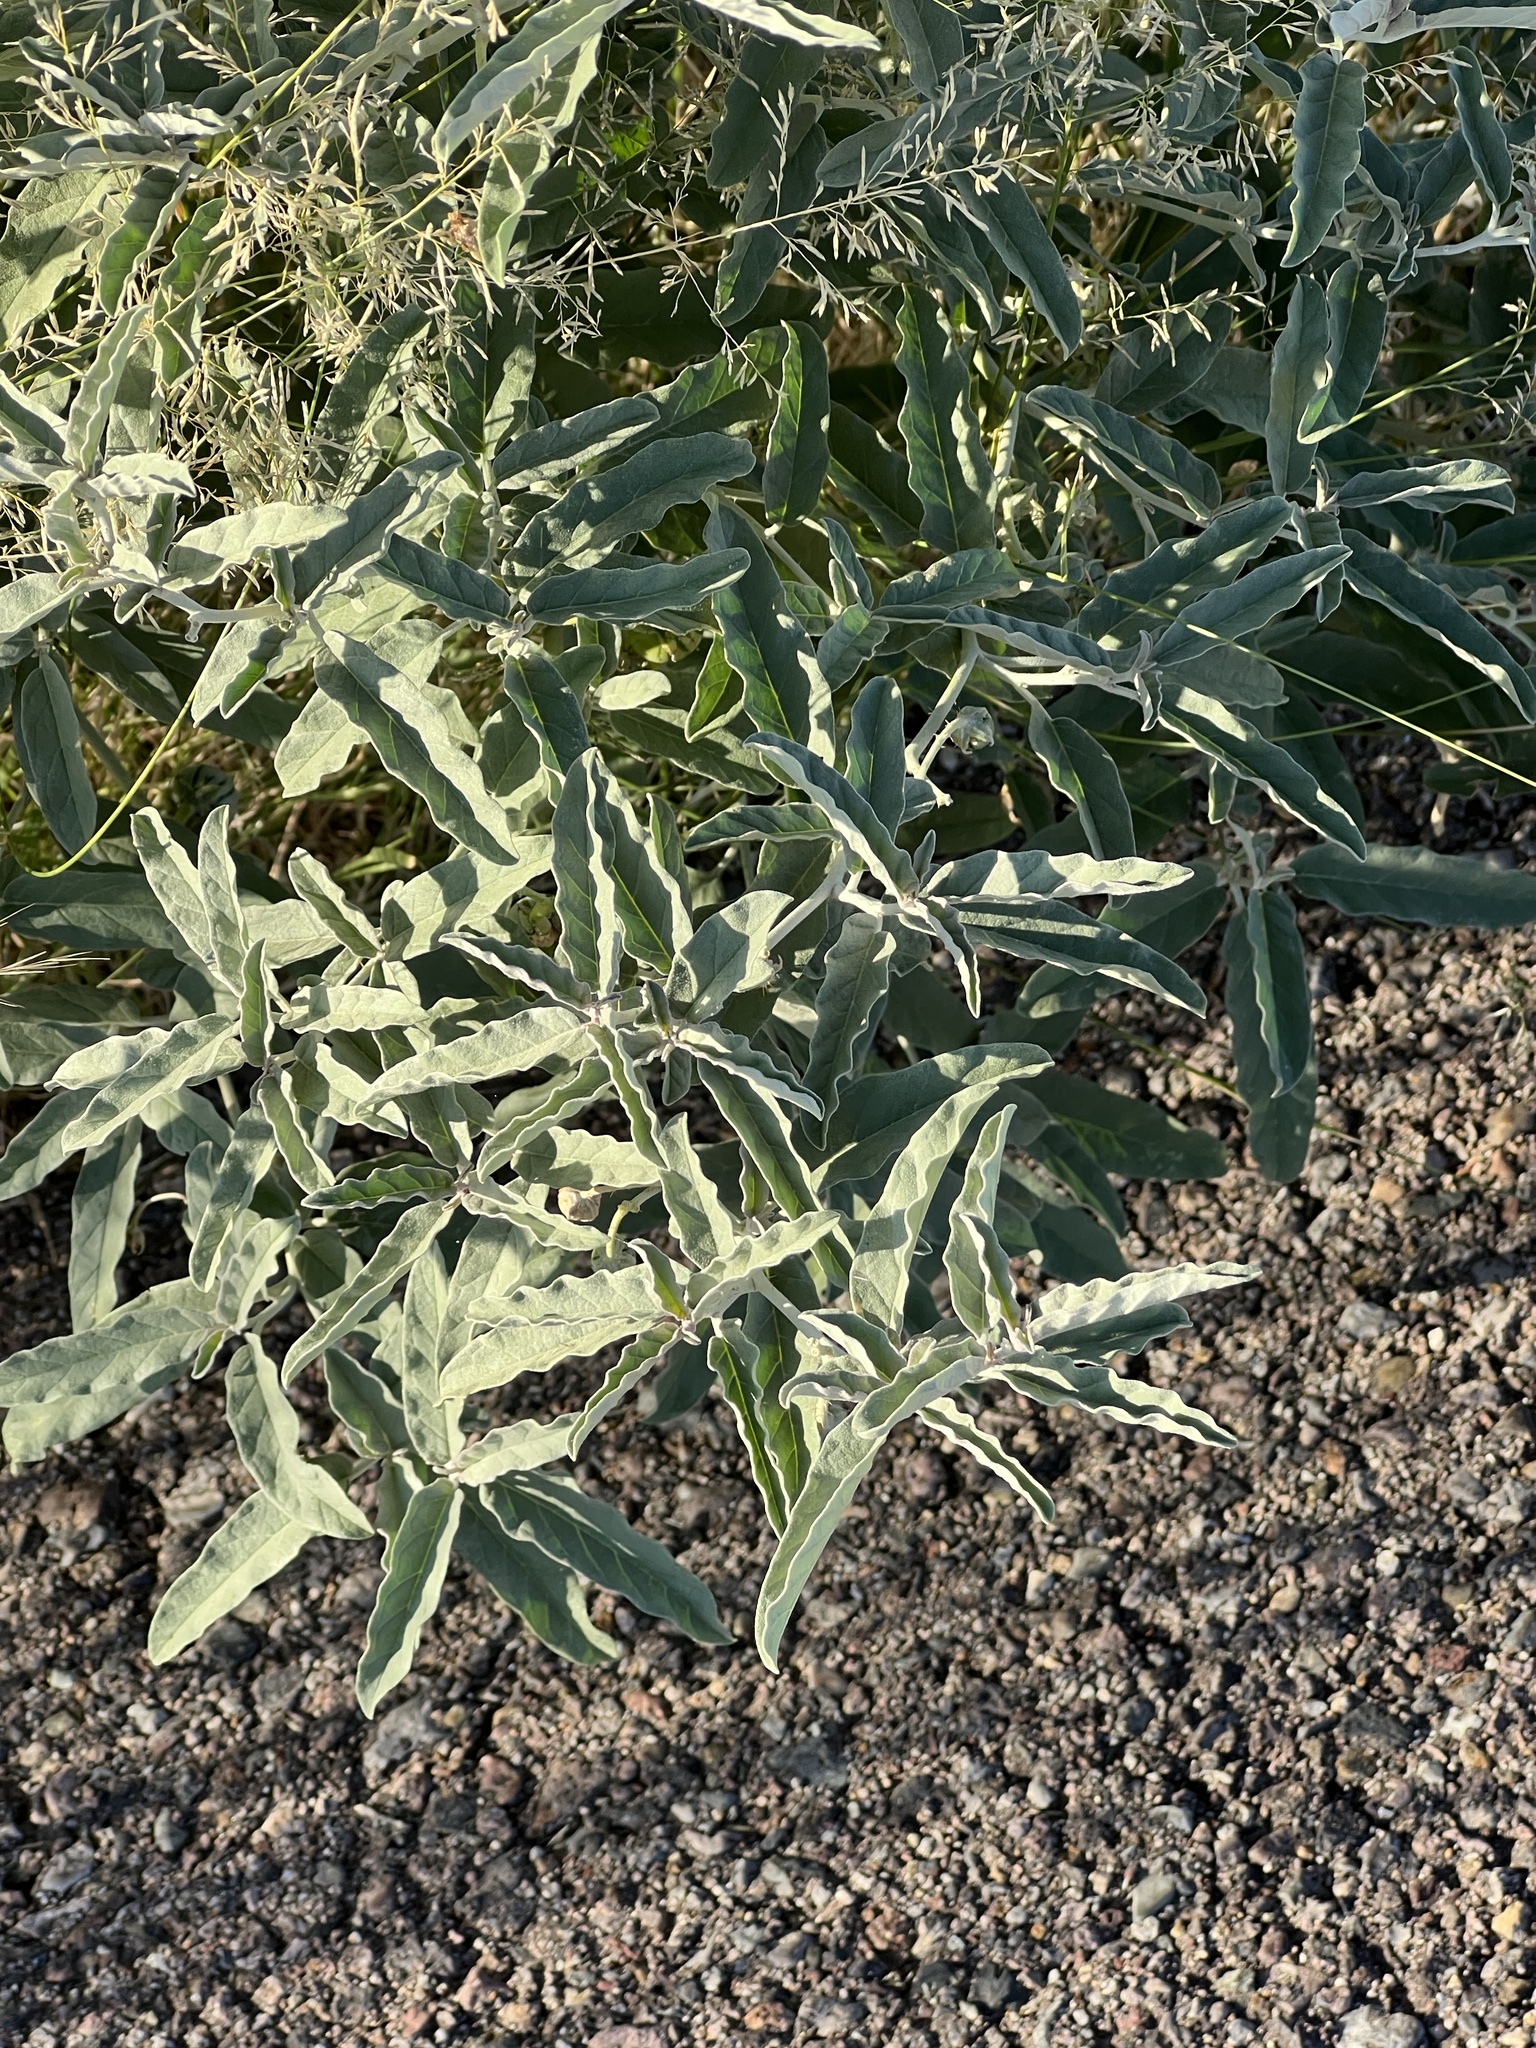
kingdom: Plantae
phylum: Tracheophyta
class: Magnoliopsida
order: Solanales
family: Solanaceae
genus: Solanum
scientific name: Solanum elaeagnifolium
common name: Silverleaf nightshade
